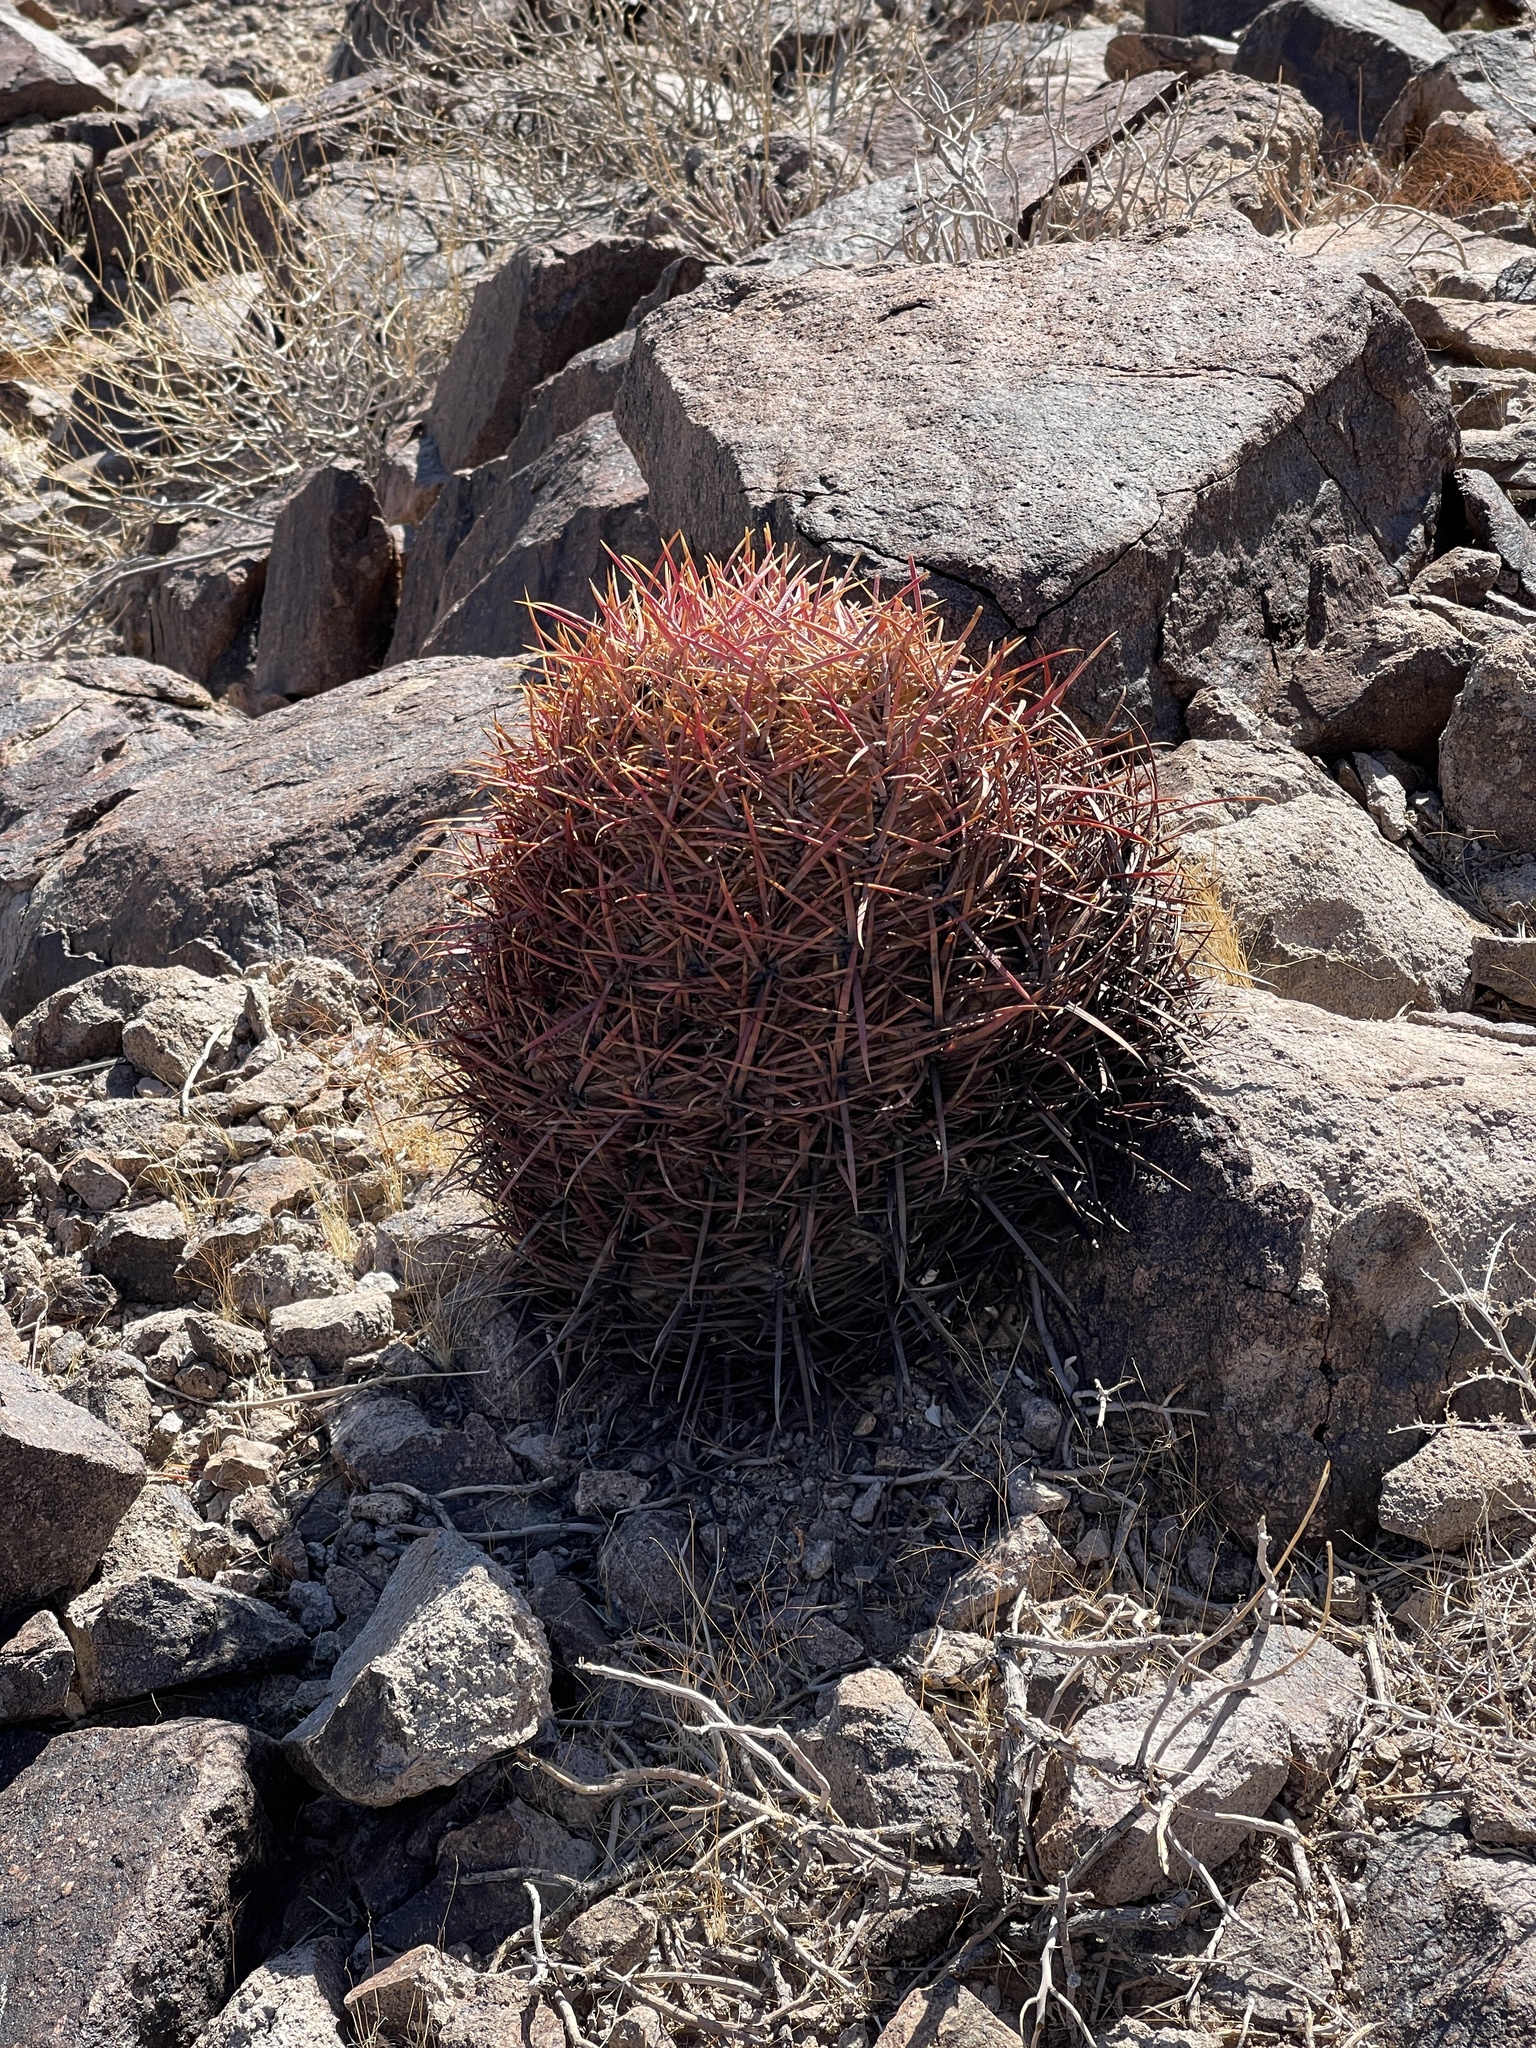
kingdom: Plantae
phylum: Tracheophyta
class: Magnoliopsida
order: Caryophyllales
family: Cactaceae
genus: Ferocactus
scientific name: Ferocactus cylindraceus
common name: California barrel cactus
